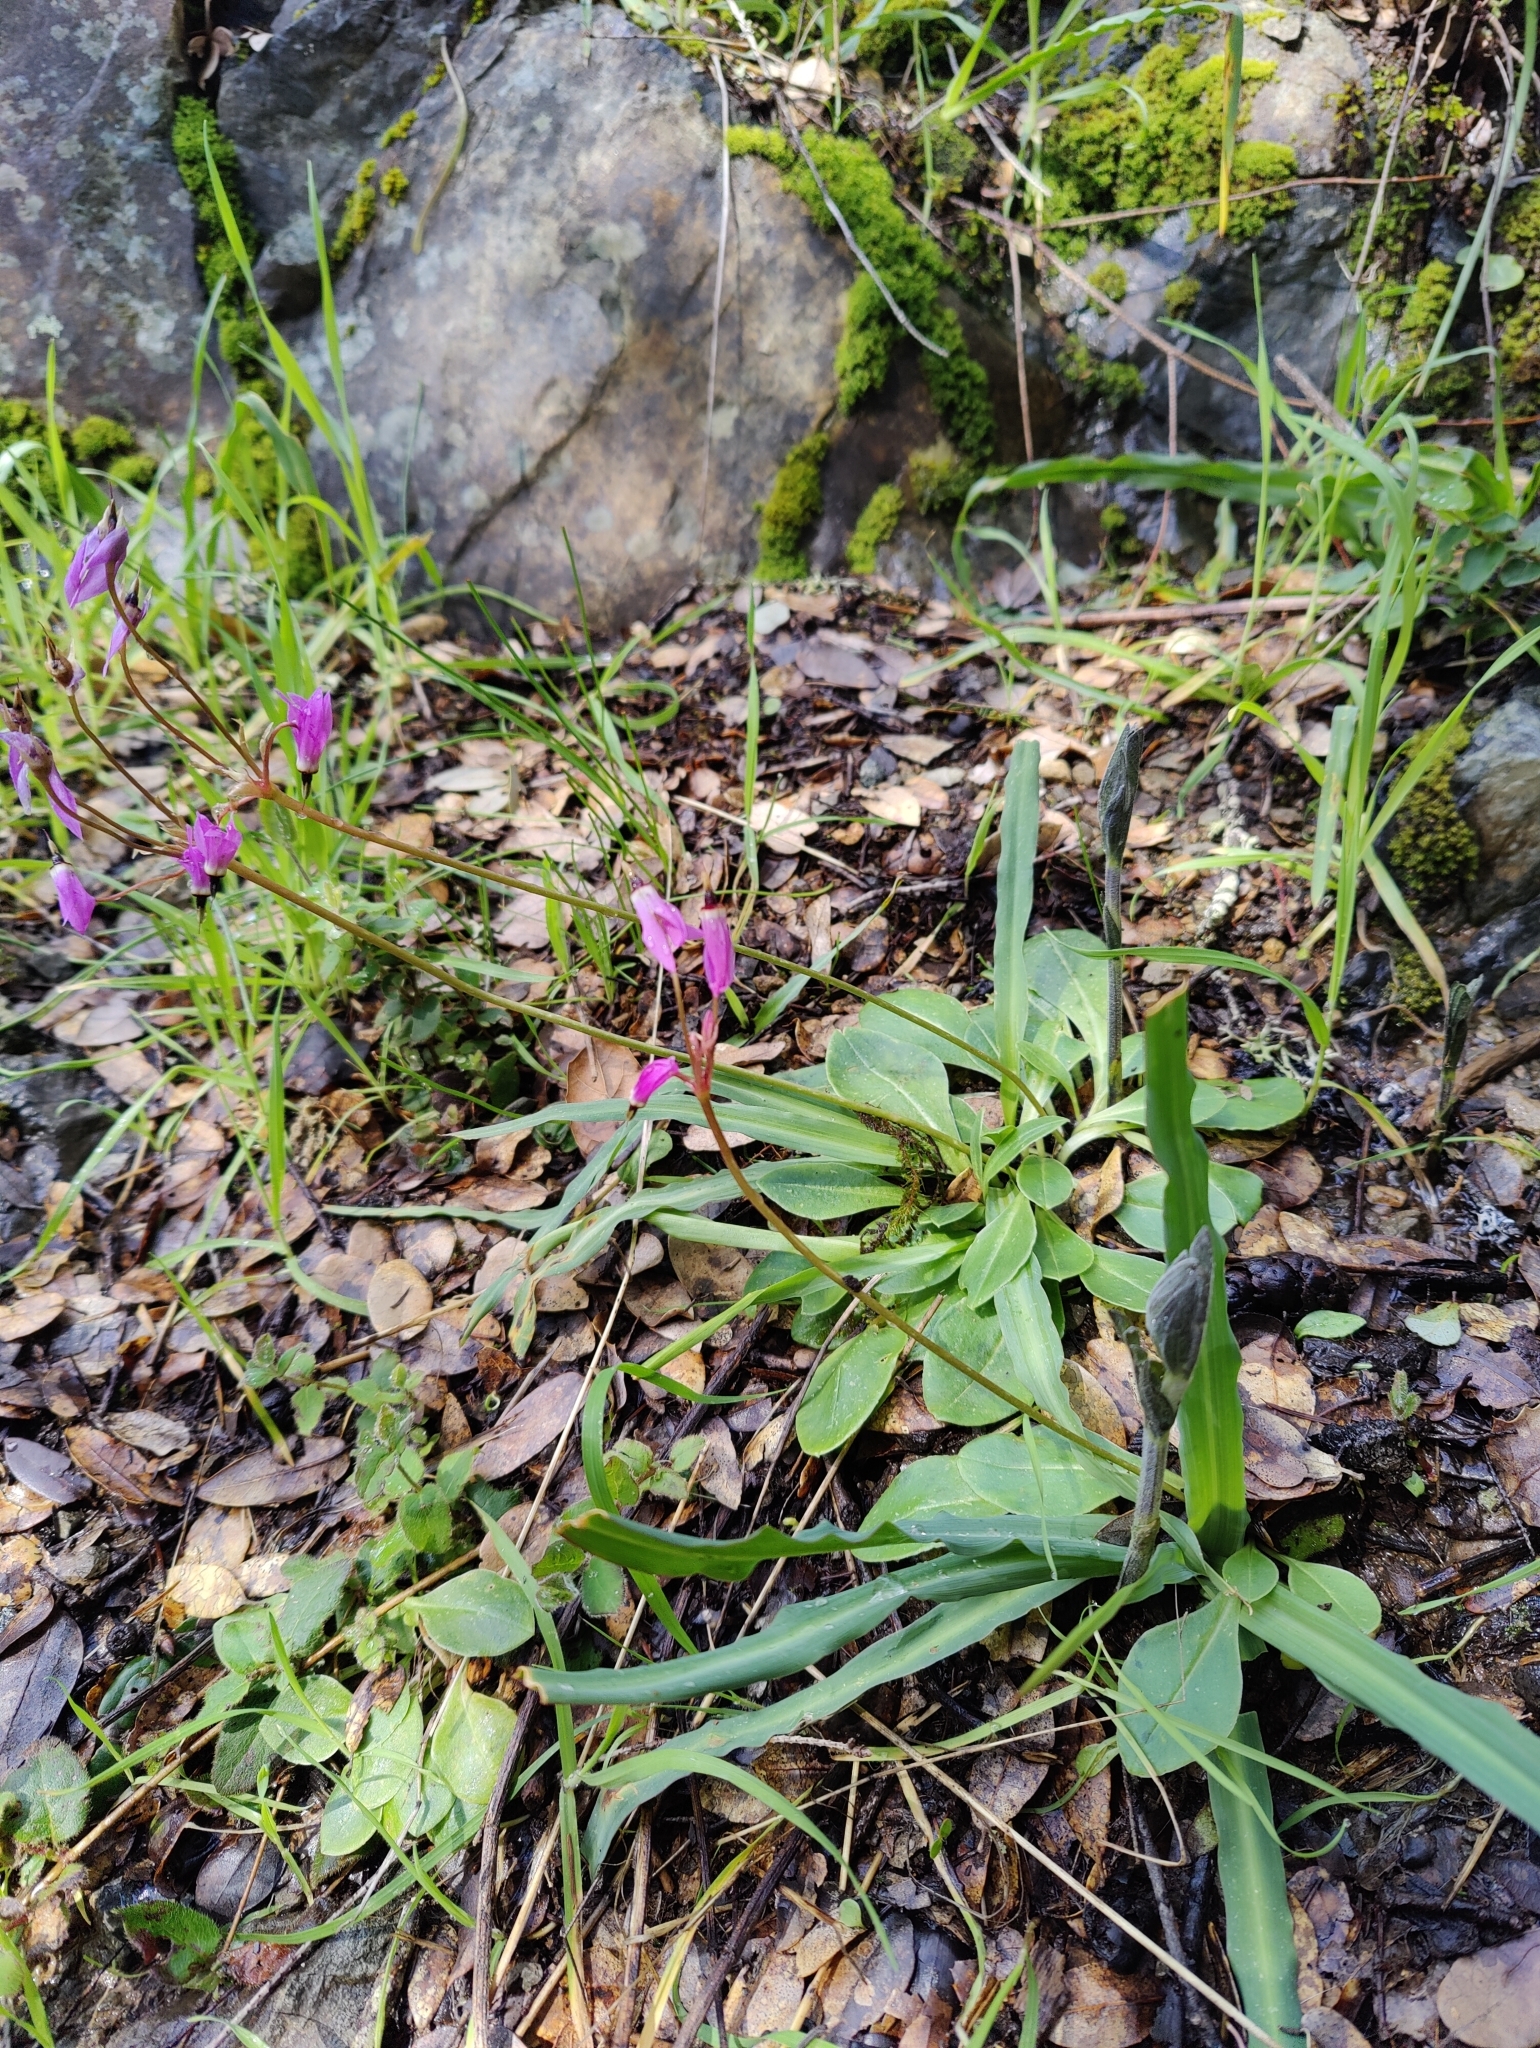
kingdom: Plantae
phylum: Tracheophyta
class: Magnoliopsida
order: Ericales
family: Primulaceae
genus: Dodecatheon
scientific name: Dodecatheon hendersonii
